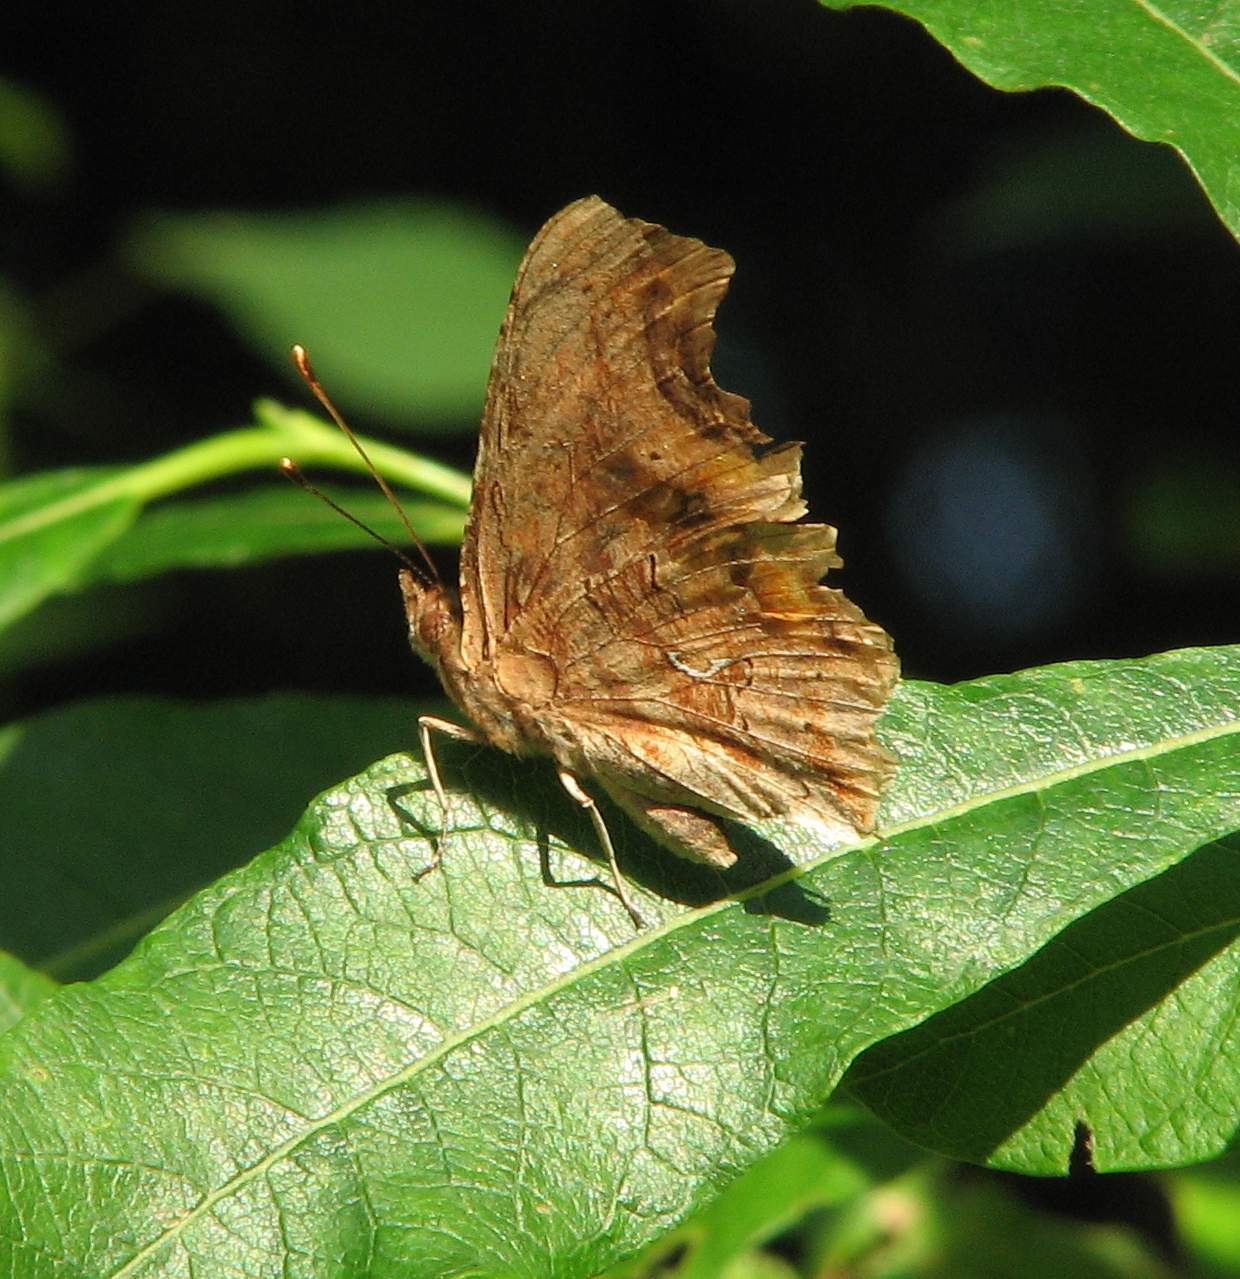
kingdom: Animalia
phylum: Arthropoda
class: Insecta
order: Lepidoptera
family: Nymphalidae
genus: Polygonia
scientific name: Polygonia satyrus
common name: Satyr angle wing
